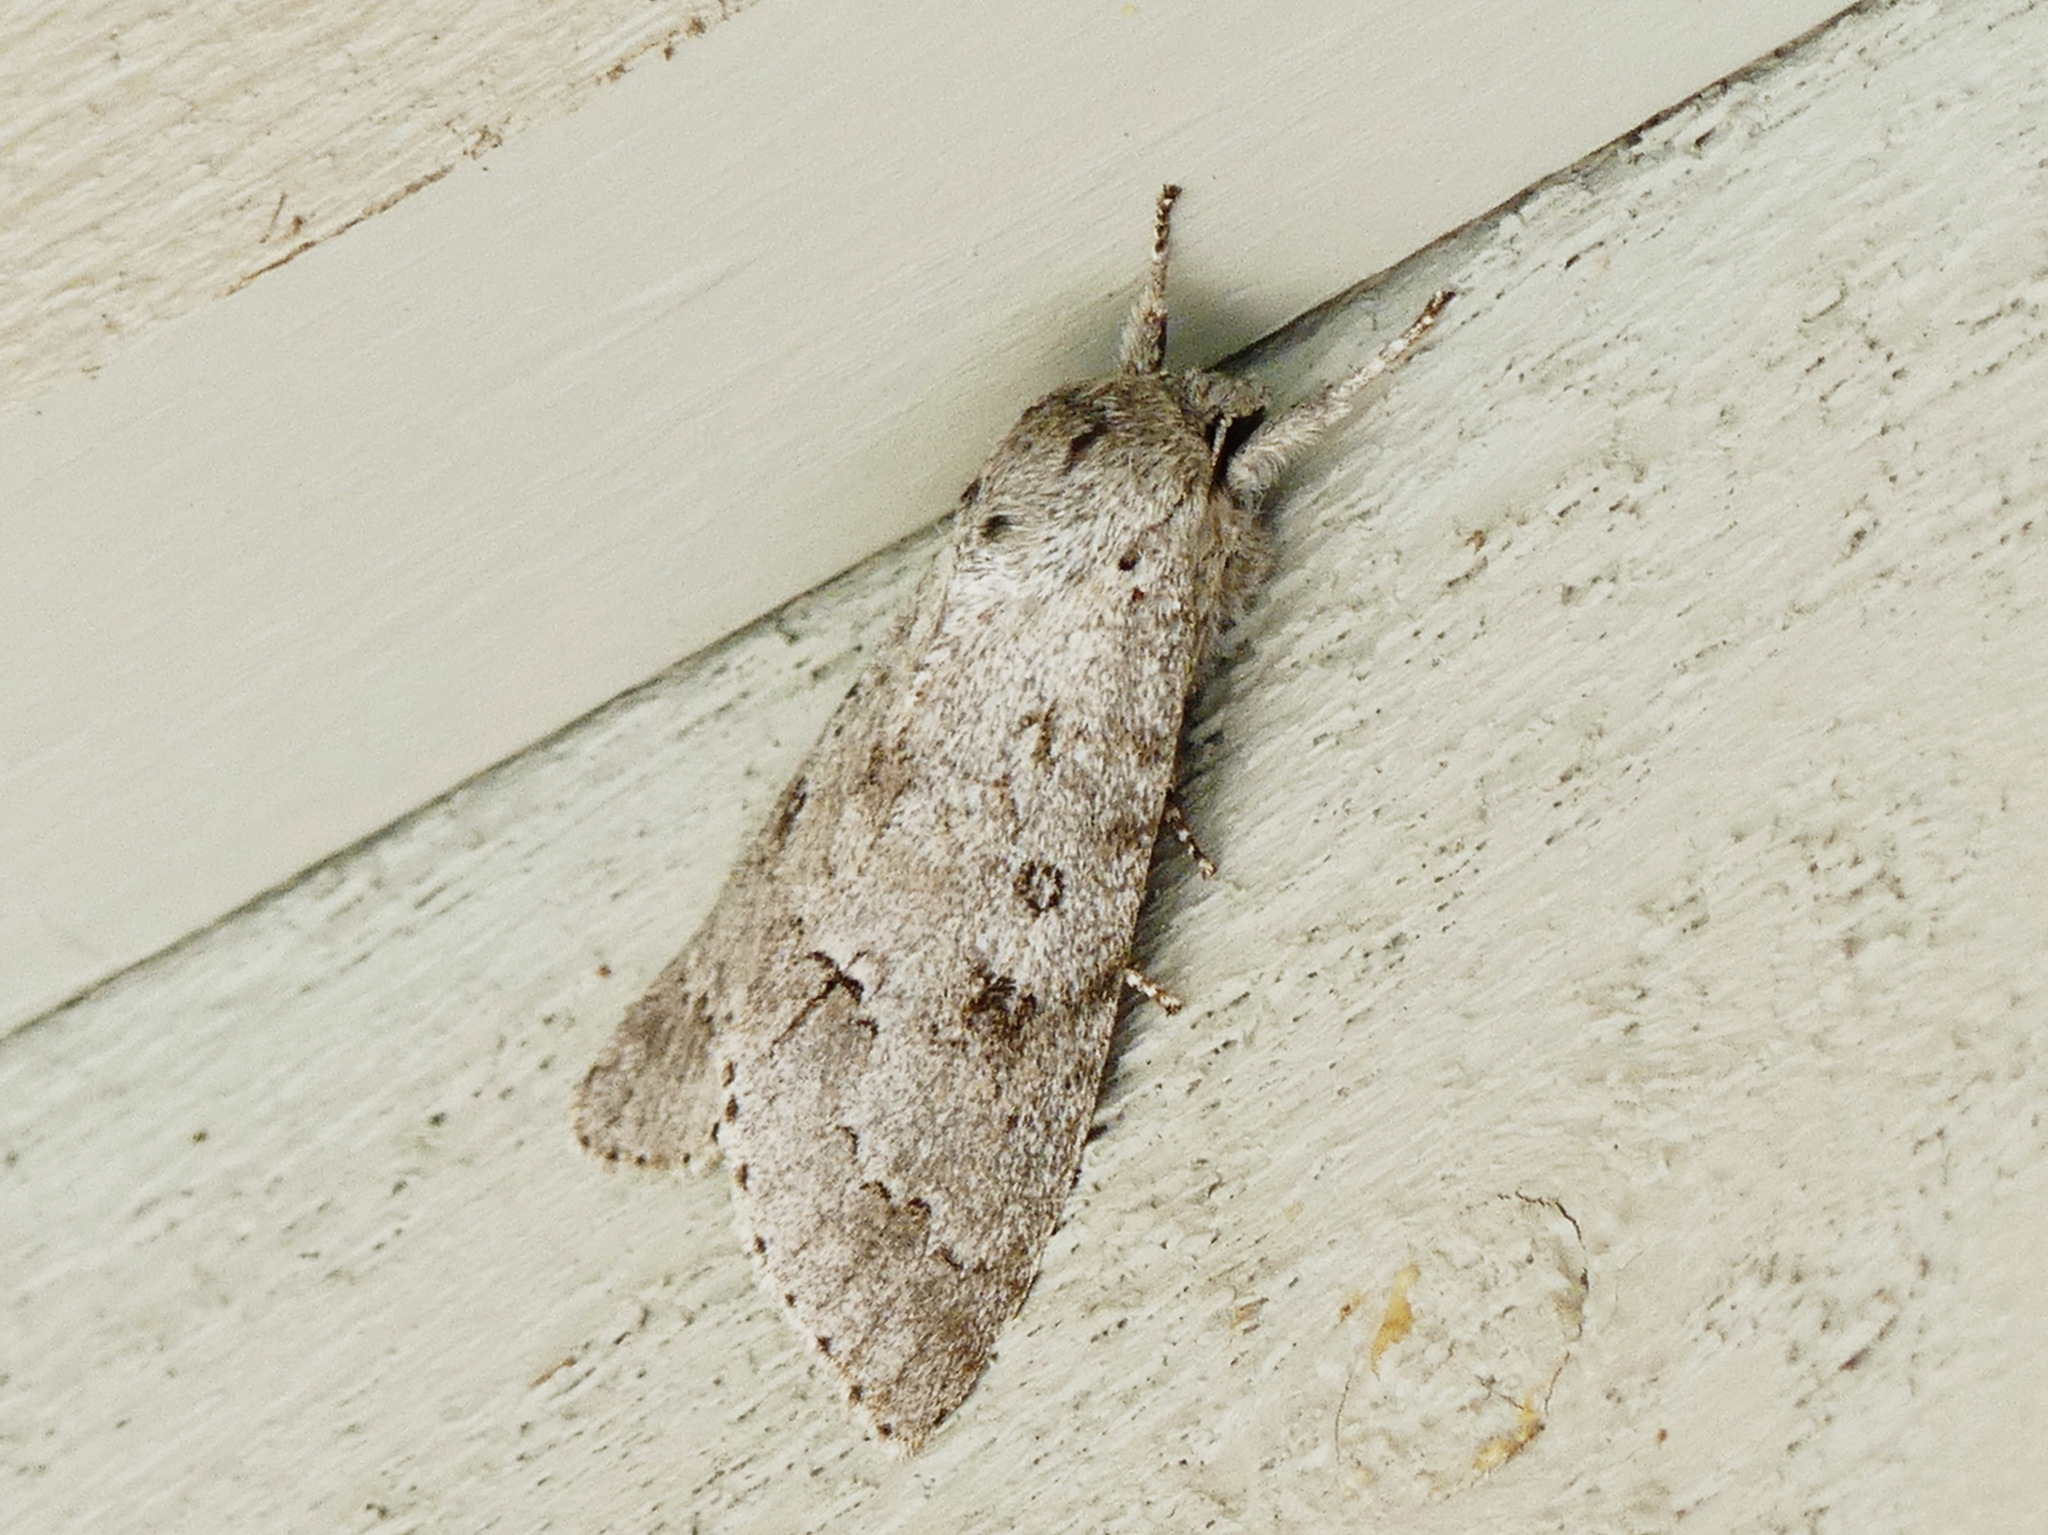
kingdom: Animalia
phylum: Arthropoda
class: Insecta
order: Lepidoptera
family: Noctuidae
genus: Acronicta
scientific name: Acronicta insita
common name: Large gray dagger
